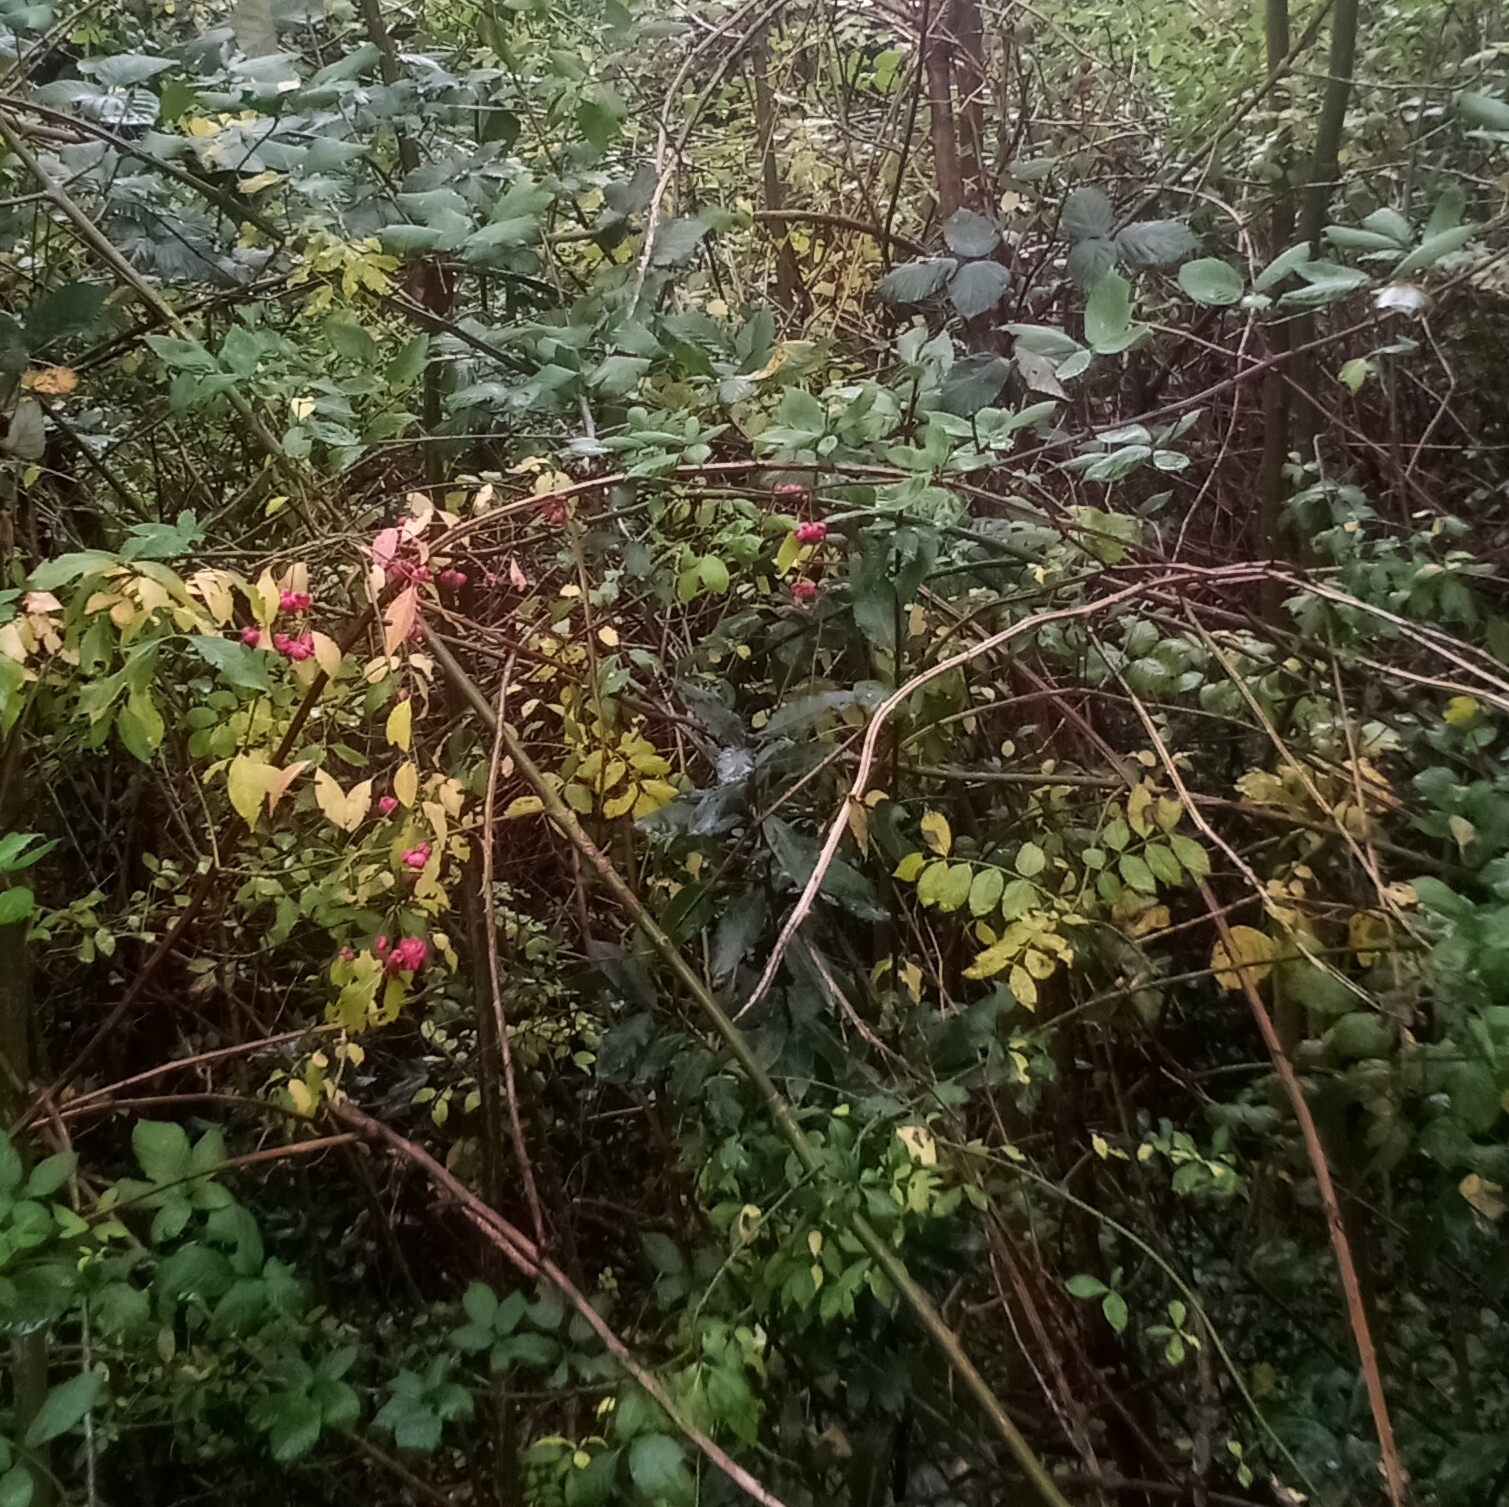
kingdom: Plantae
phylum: Tracheophyta
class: Magnoliopsida
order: Celastrales
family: Celastraceae
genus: Euonymus
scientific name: Euonymus europaeus
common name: Spindle
